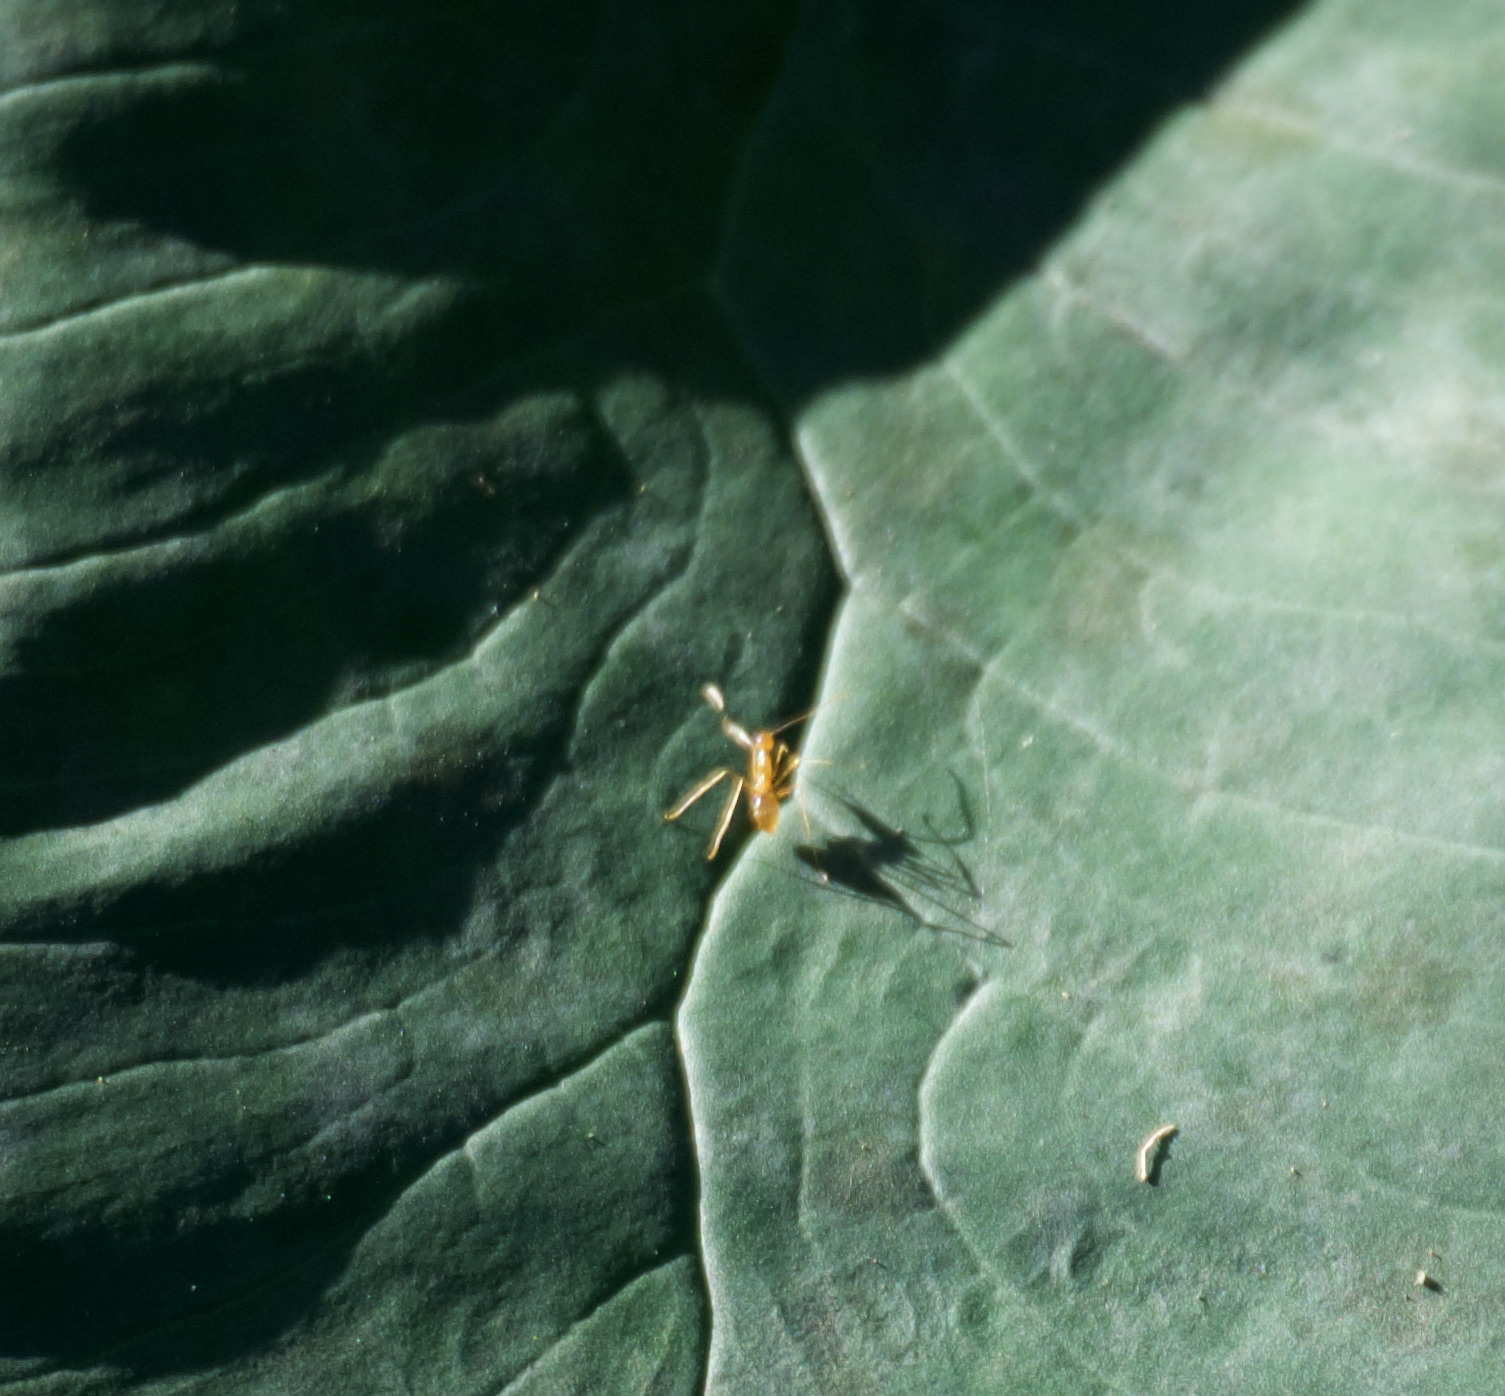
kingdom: Animalia
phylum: Arthropoda
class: Insecta
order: Hymenoptera
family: Formicidae
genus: Anoplolepis
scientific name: Anoplolepis gracilipes
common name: Ant
